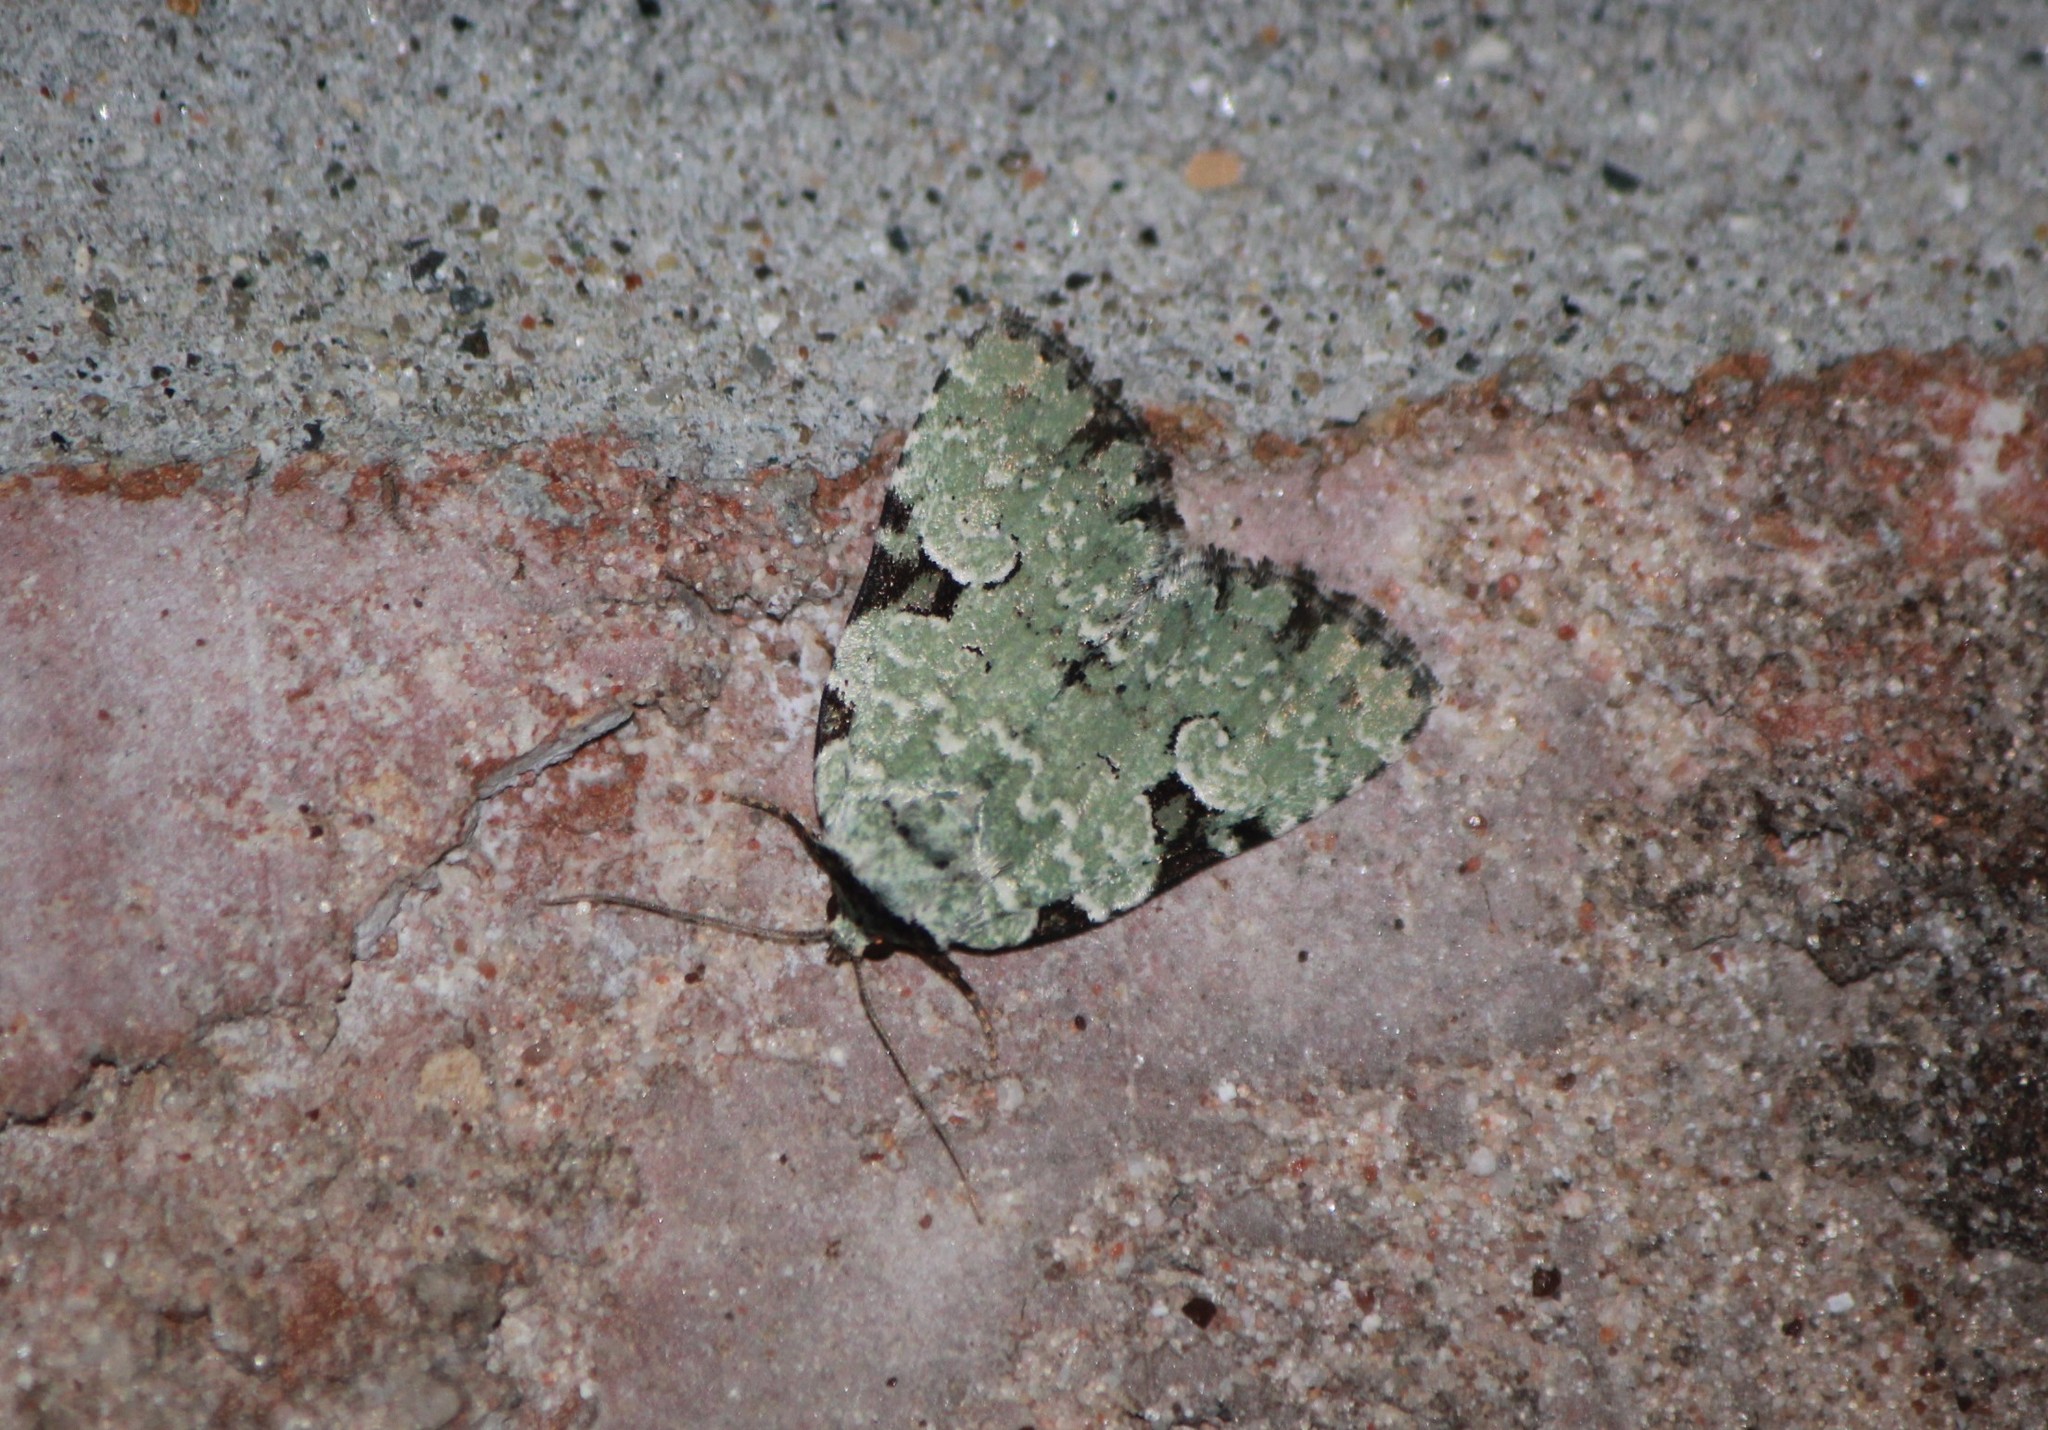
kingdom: Animalia
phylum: Arthropoda
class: Insecta
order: Lepidoptera
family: Noctuidae
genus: Leuconycta
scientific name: Leuconycta diphteroides
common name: Green leuconycta moth
